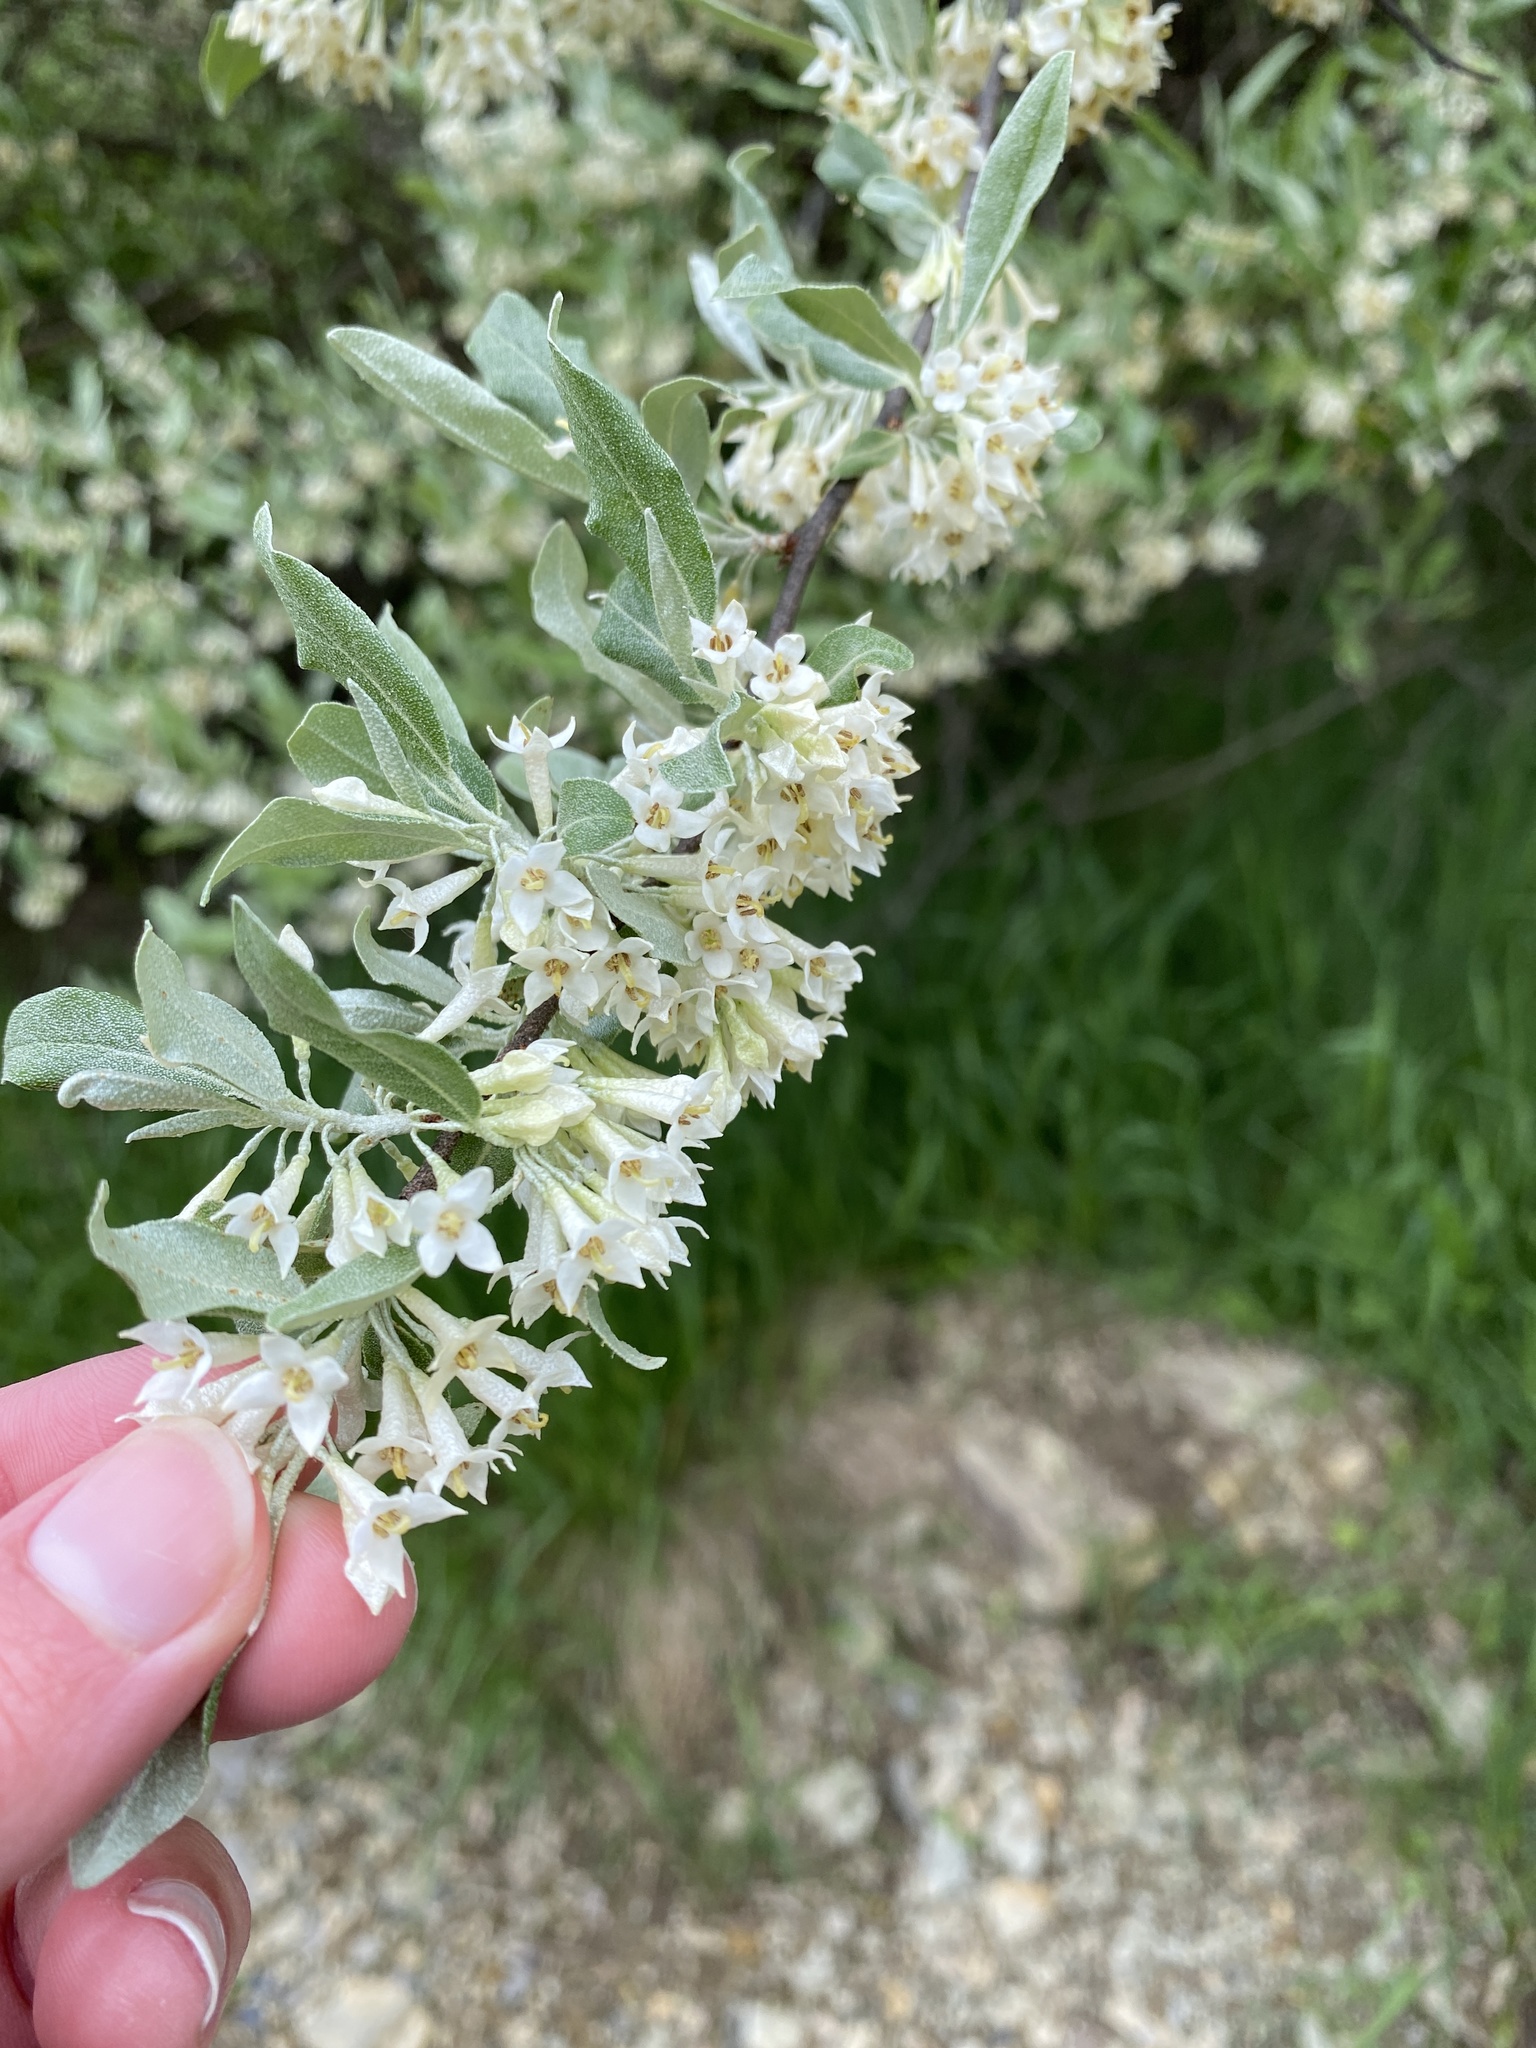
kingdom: Plantae
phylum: Tracheophyta
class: Magnoliopsida
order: Rosales
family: Elaeagnaceae
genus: Elaeagnus
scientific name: Elaeagnus umbellata
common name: Autumn olive
